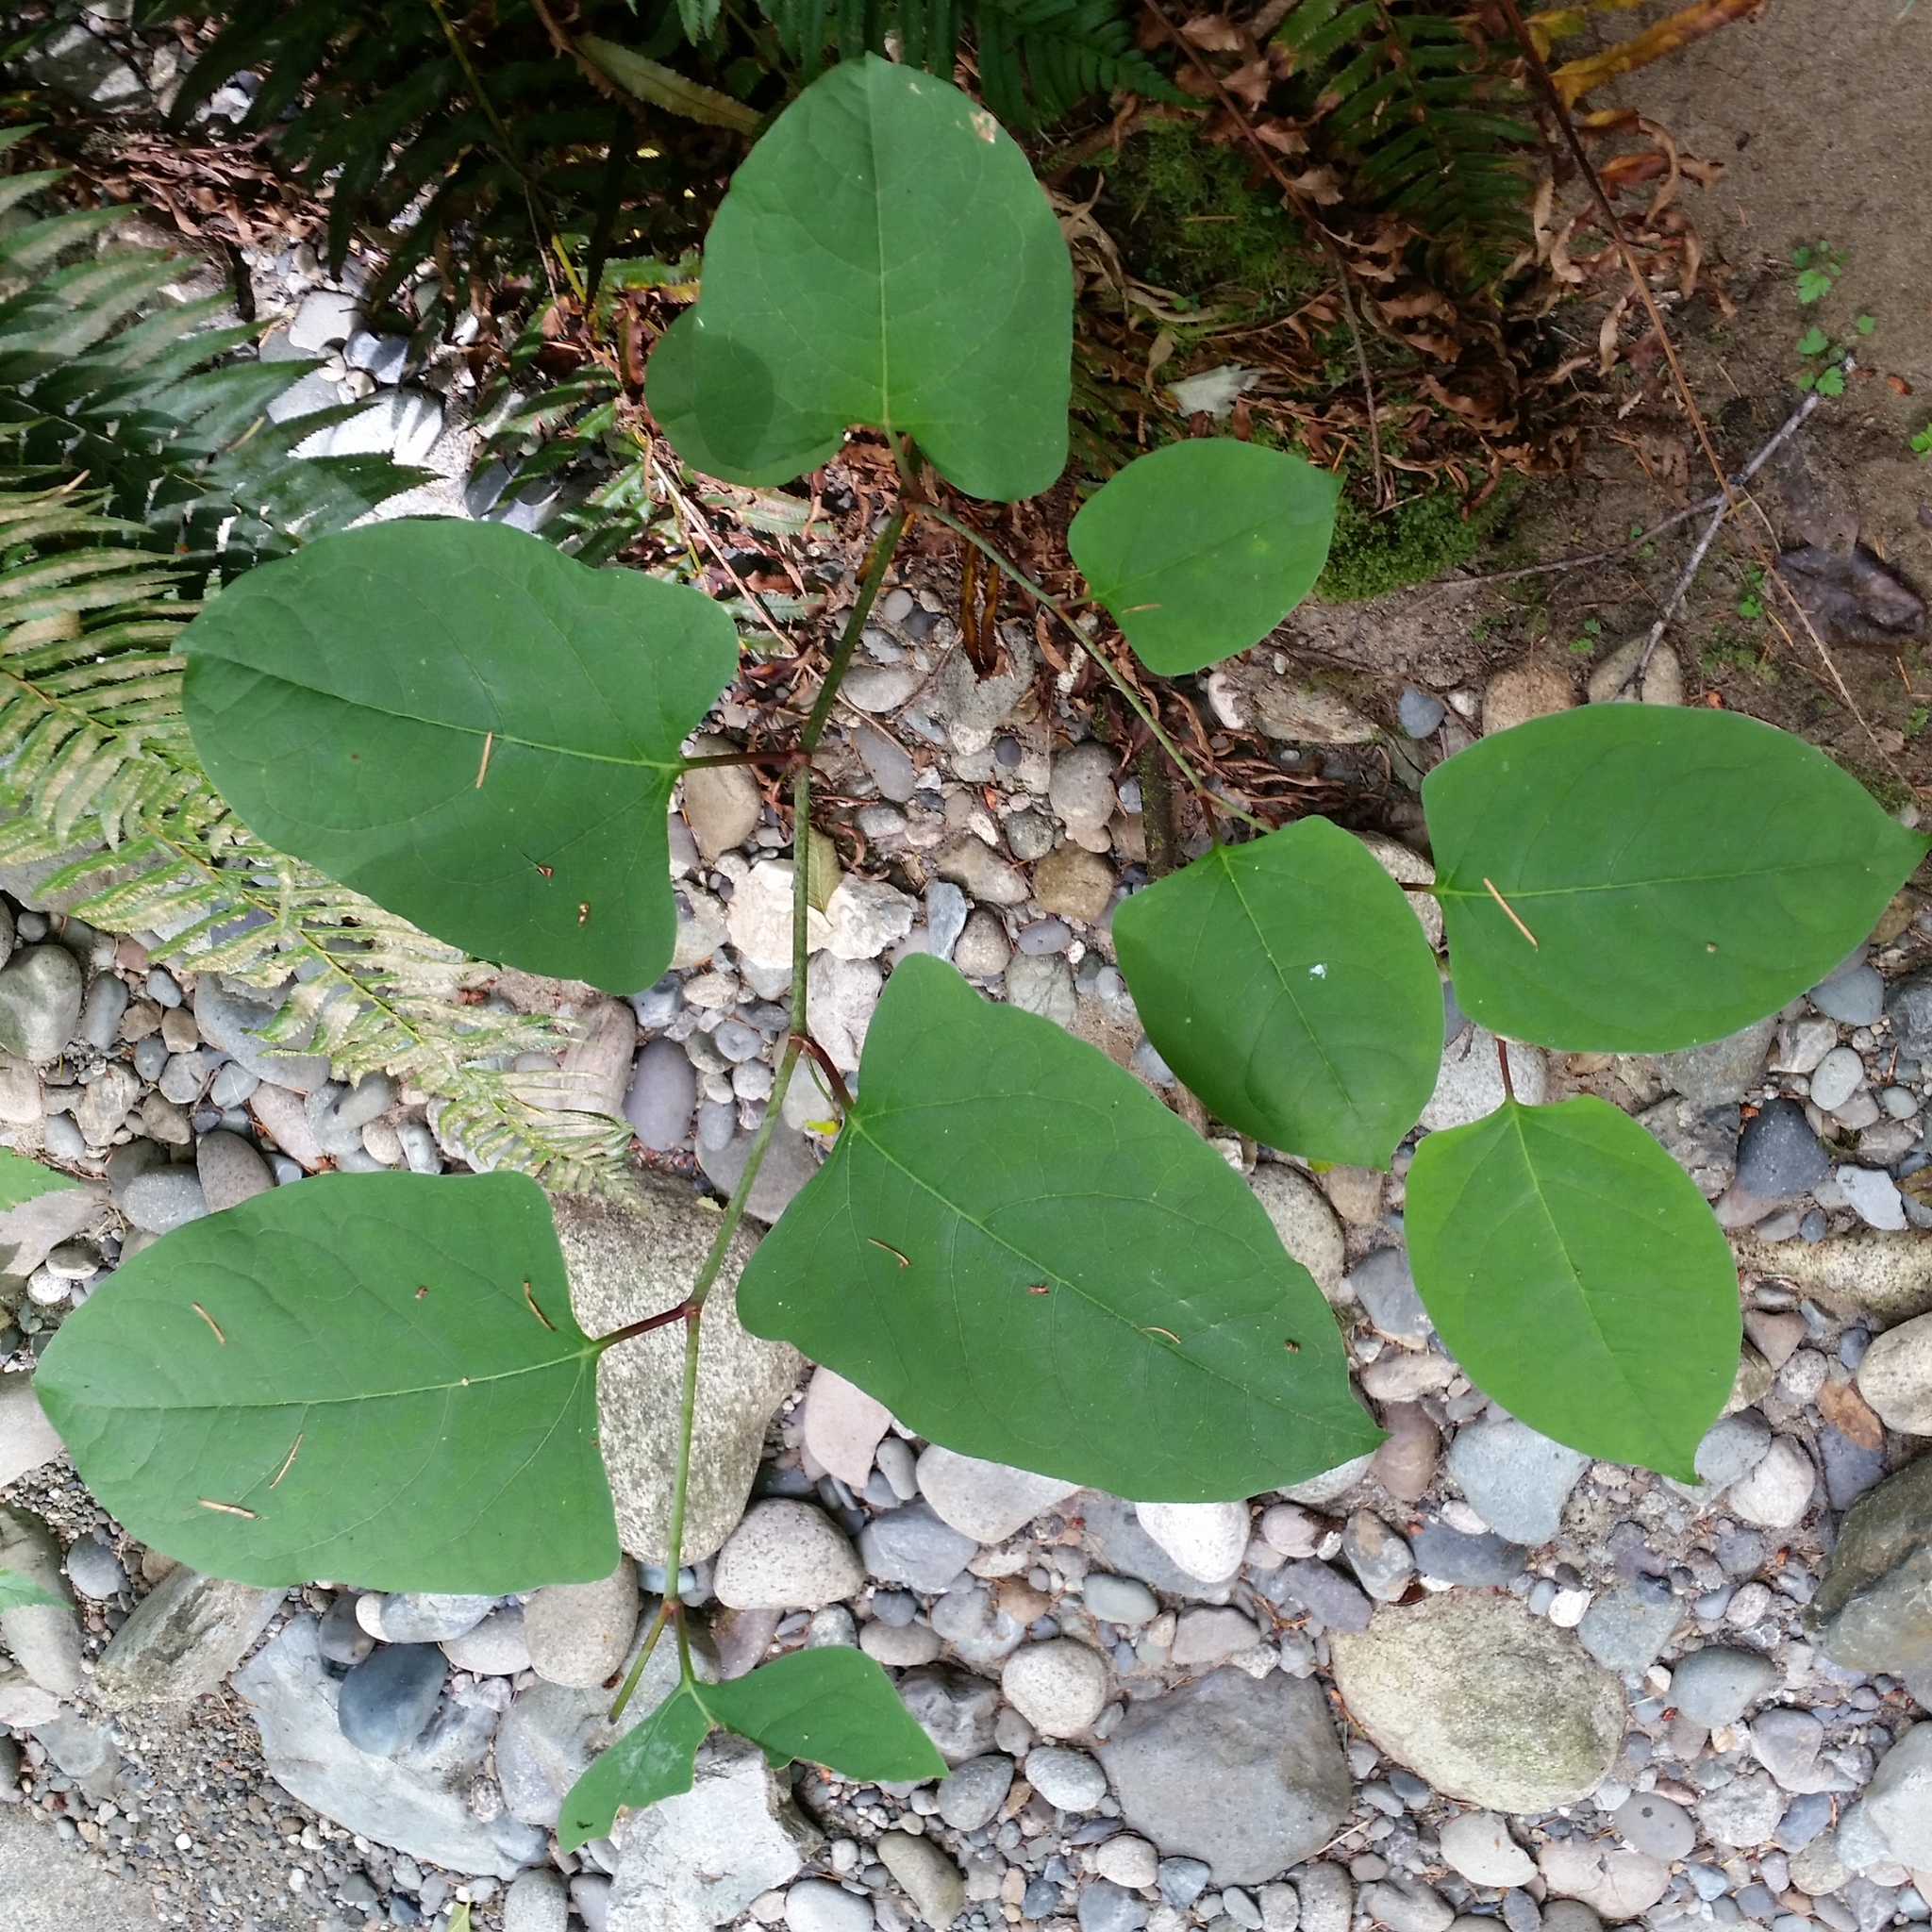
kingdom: Plantae
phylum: Tracheophyta
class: Magnoliopsida
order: Caryophyllales
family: Polygonaceae
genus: Reynoutria
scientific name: Reynoutria japonica
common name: Japanese knotweed
